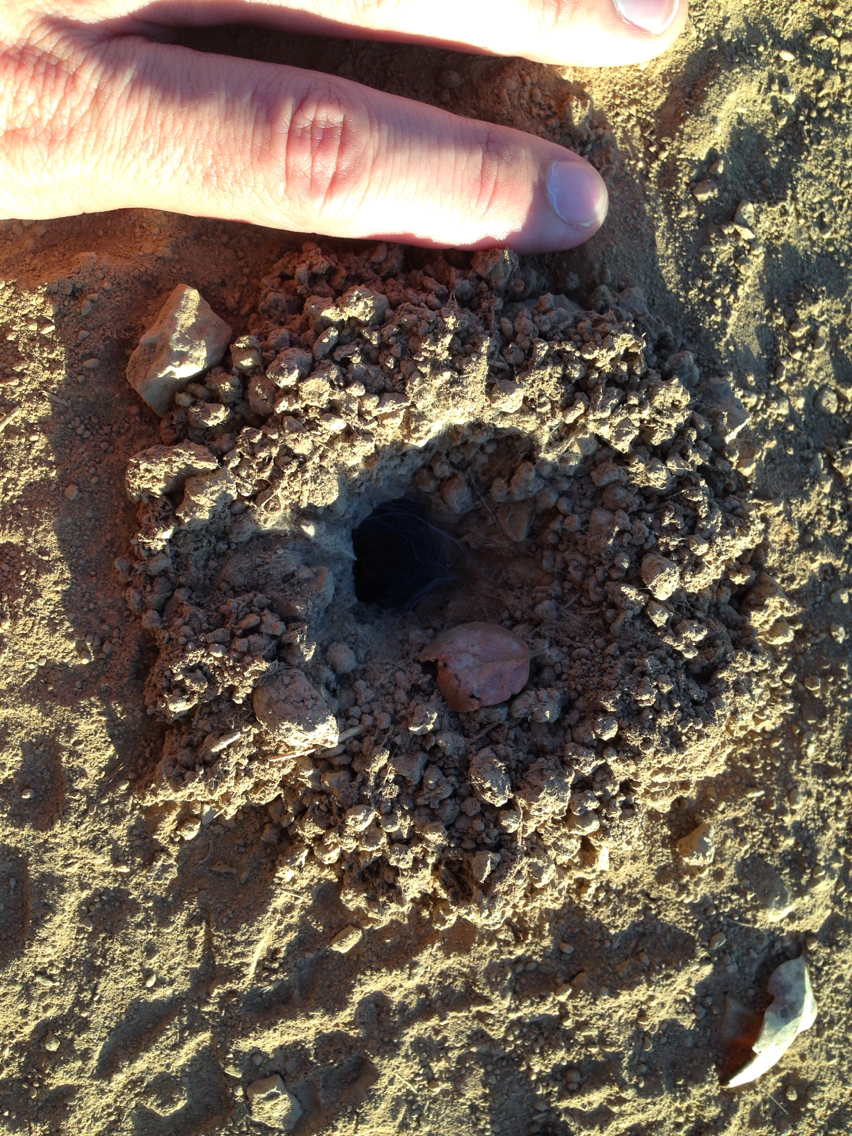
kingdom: Animalia
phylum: Arthropoda
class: Arachnida
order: Araneae
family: Theraphosidae
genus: Aphonopelma
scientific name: Aphonopelma iodius
